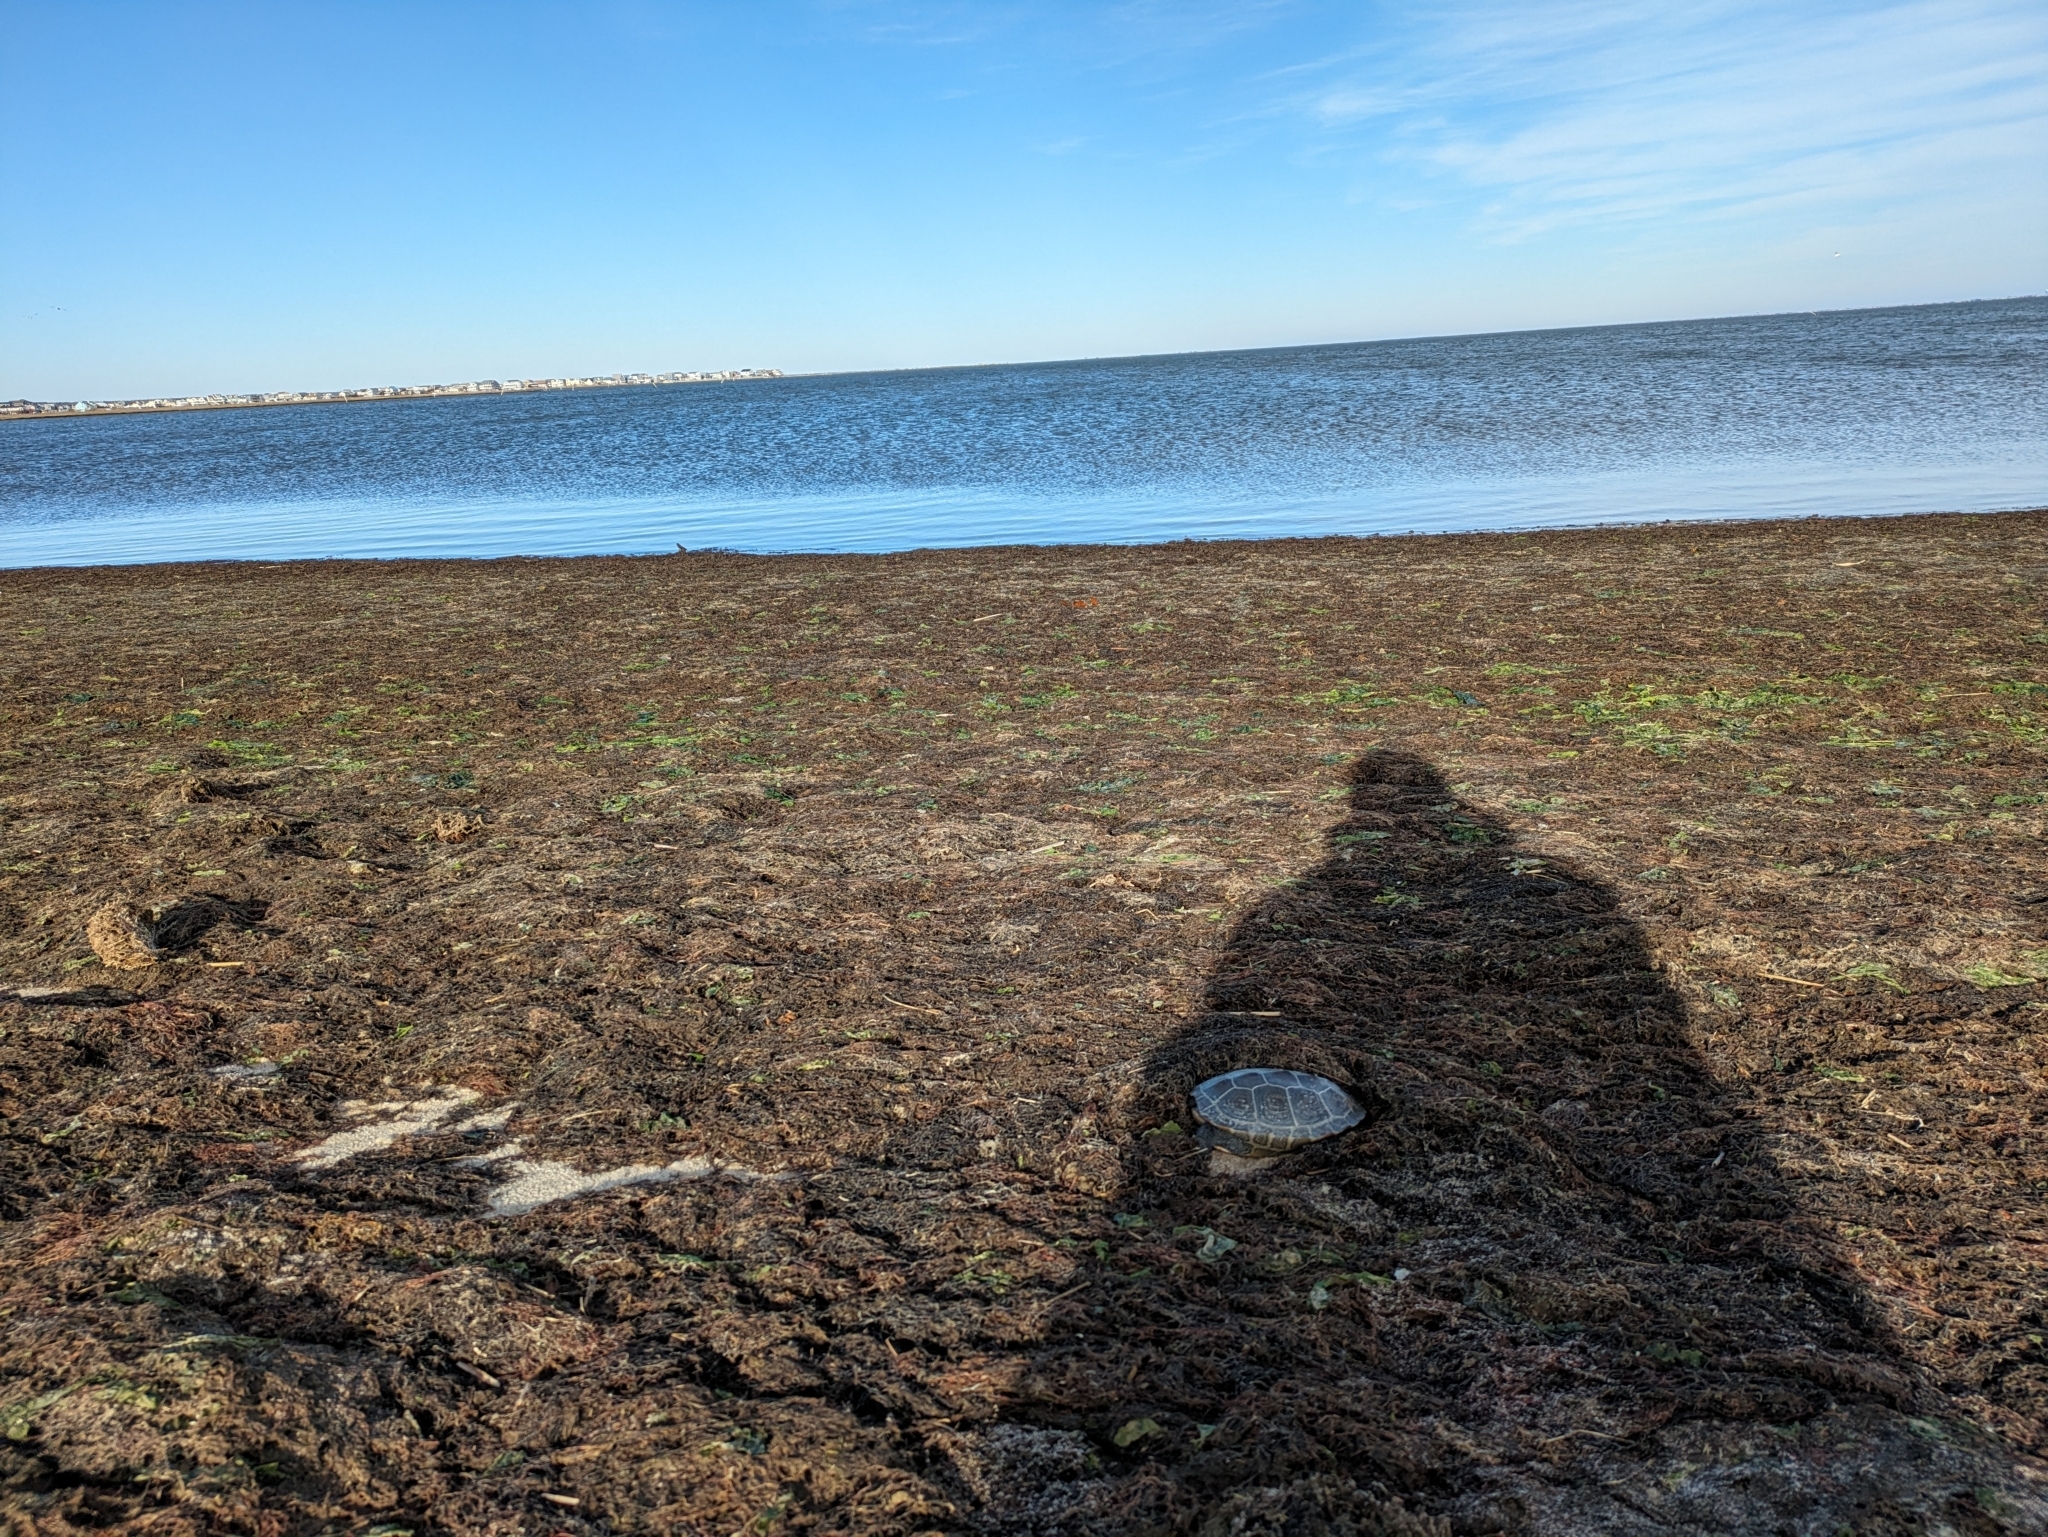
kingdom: Animalia
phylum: Chordata
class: Testudines
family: Emydidae
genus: Malaclemys
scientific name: Malaclemys terrapin
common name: Diamondback terrapin
